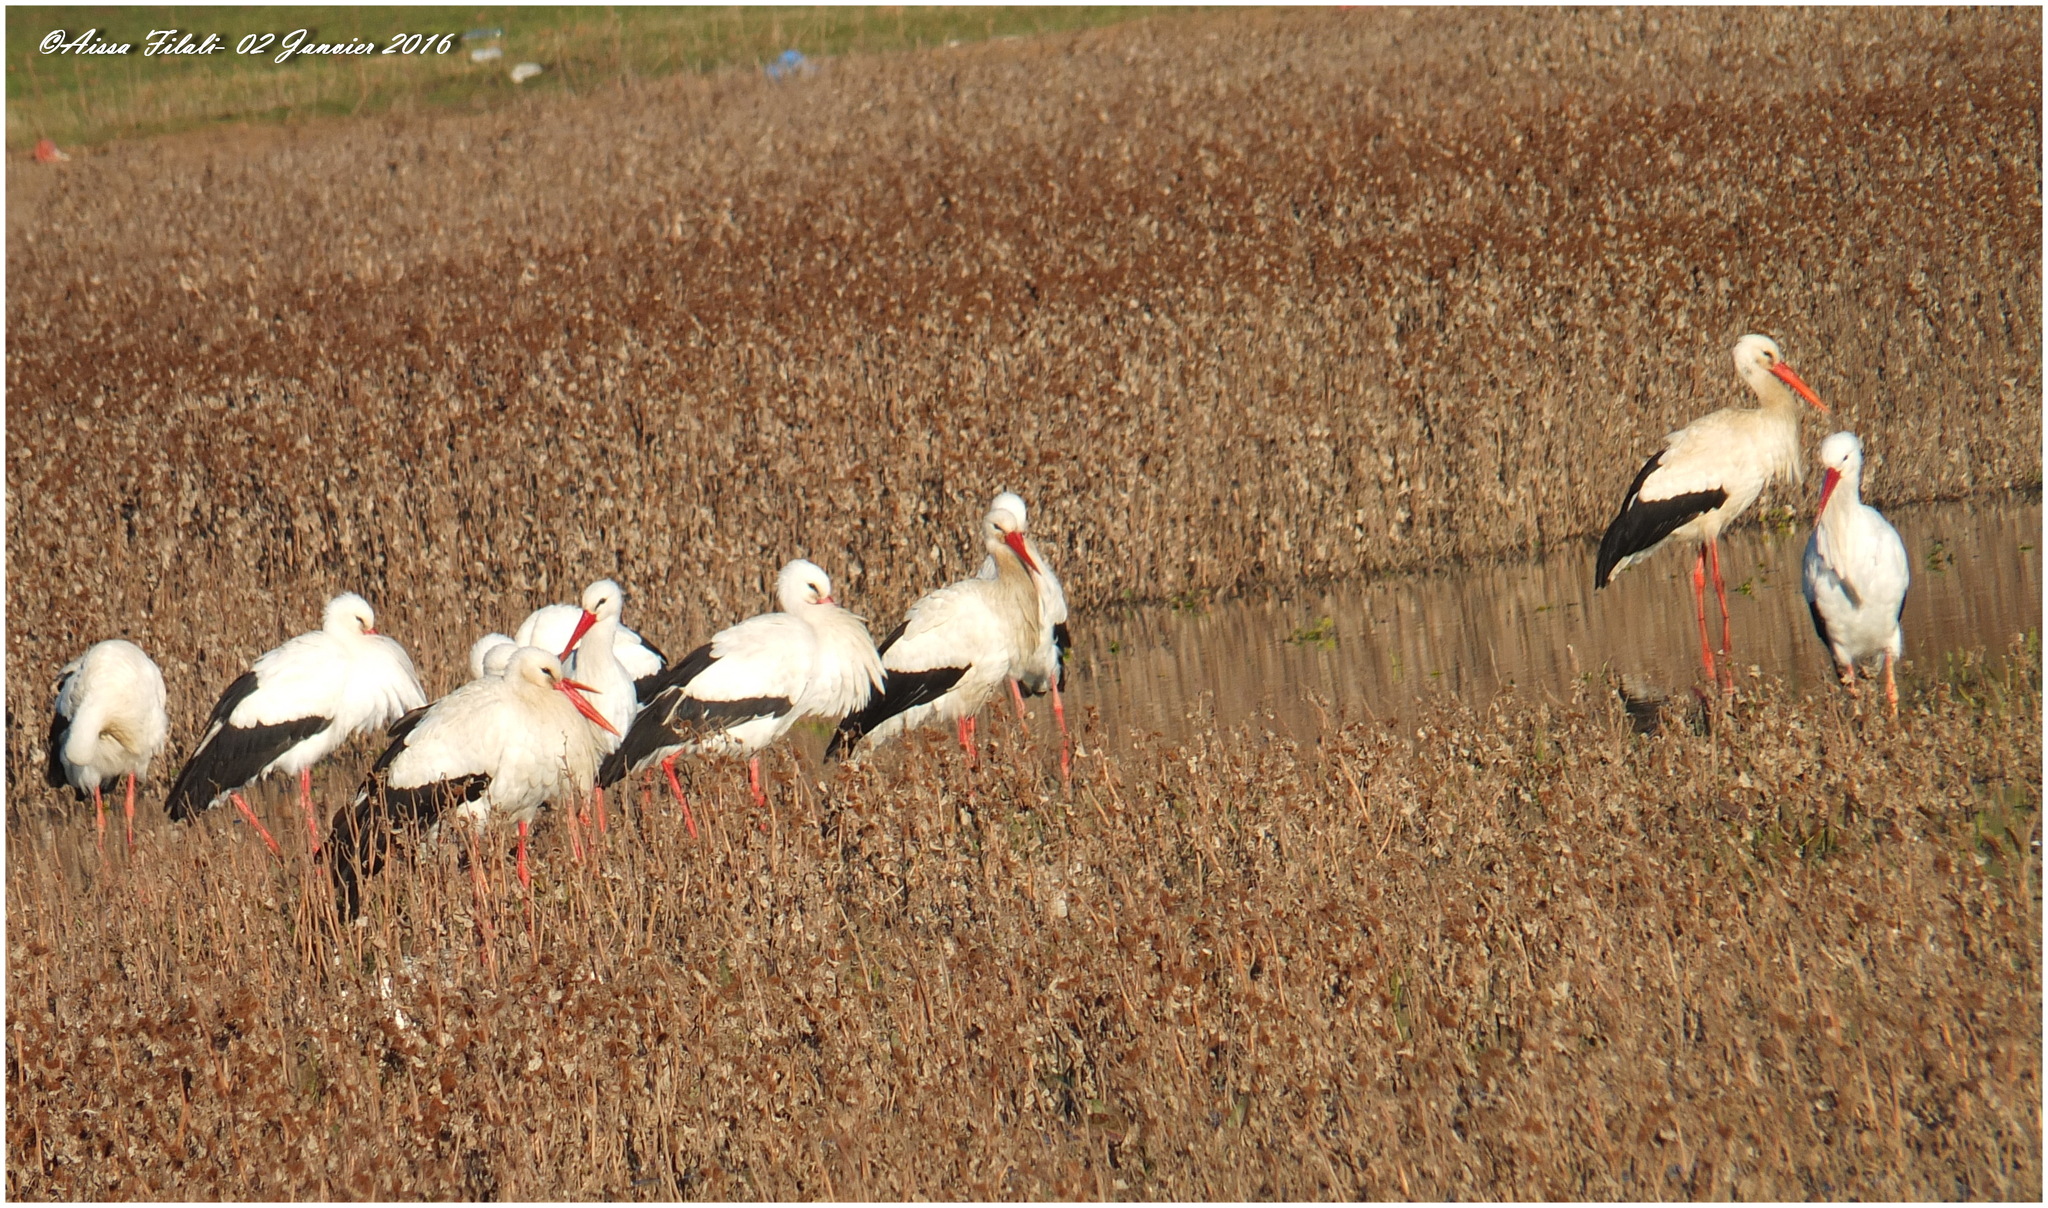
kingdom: Animalia
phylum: Chordata
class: Aves
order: Ciconiiformes
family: Ciconiidae
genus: Ciconia
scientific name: Ciconia ciconia
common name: White stork
